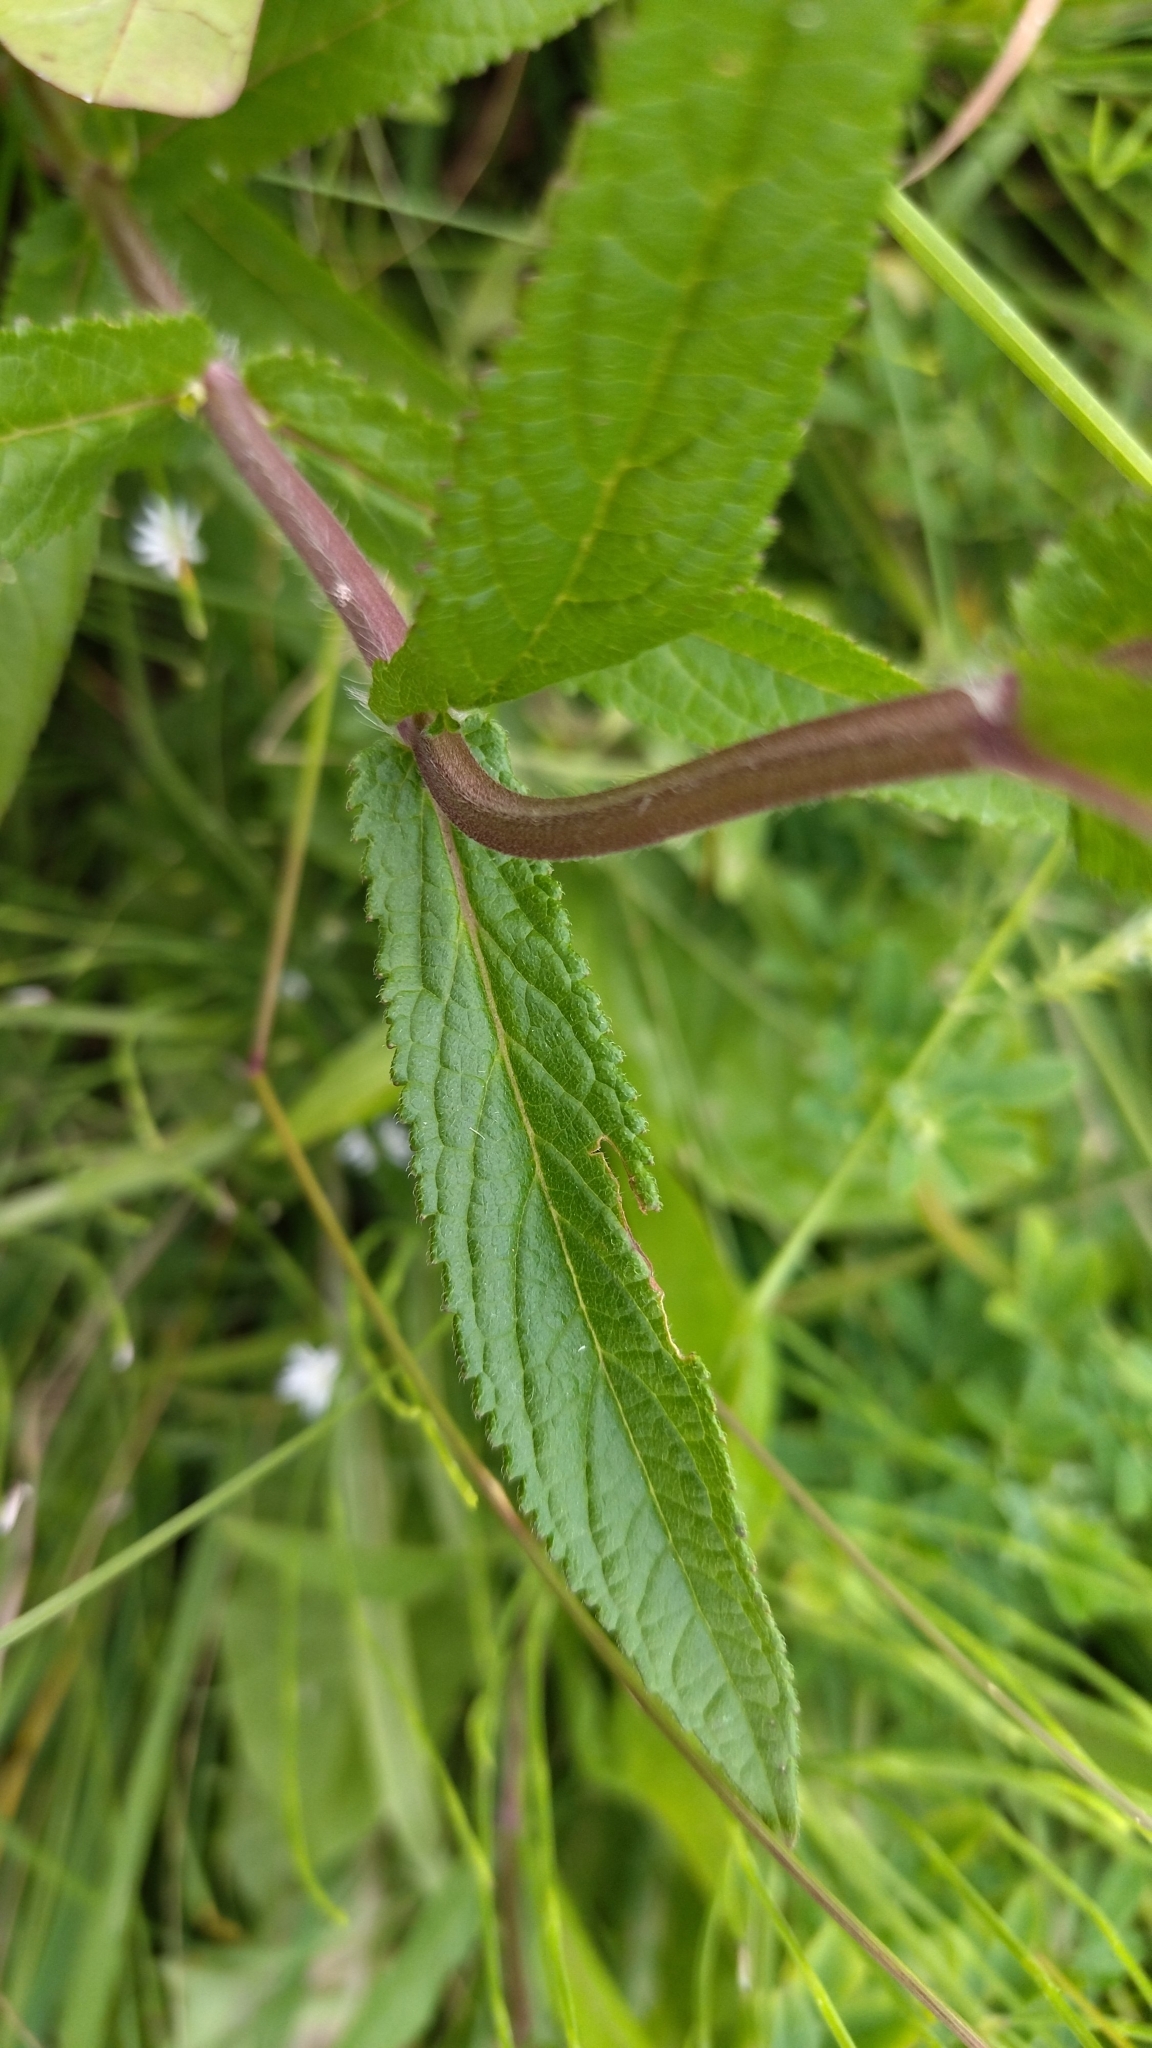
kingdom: Plantae
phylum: Tracheophyta
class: Magnoliopsida
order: Lamiales
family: Lamiaceae
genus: Stachys
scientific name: Stachys palustris
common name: Marsh woundwort
